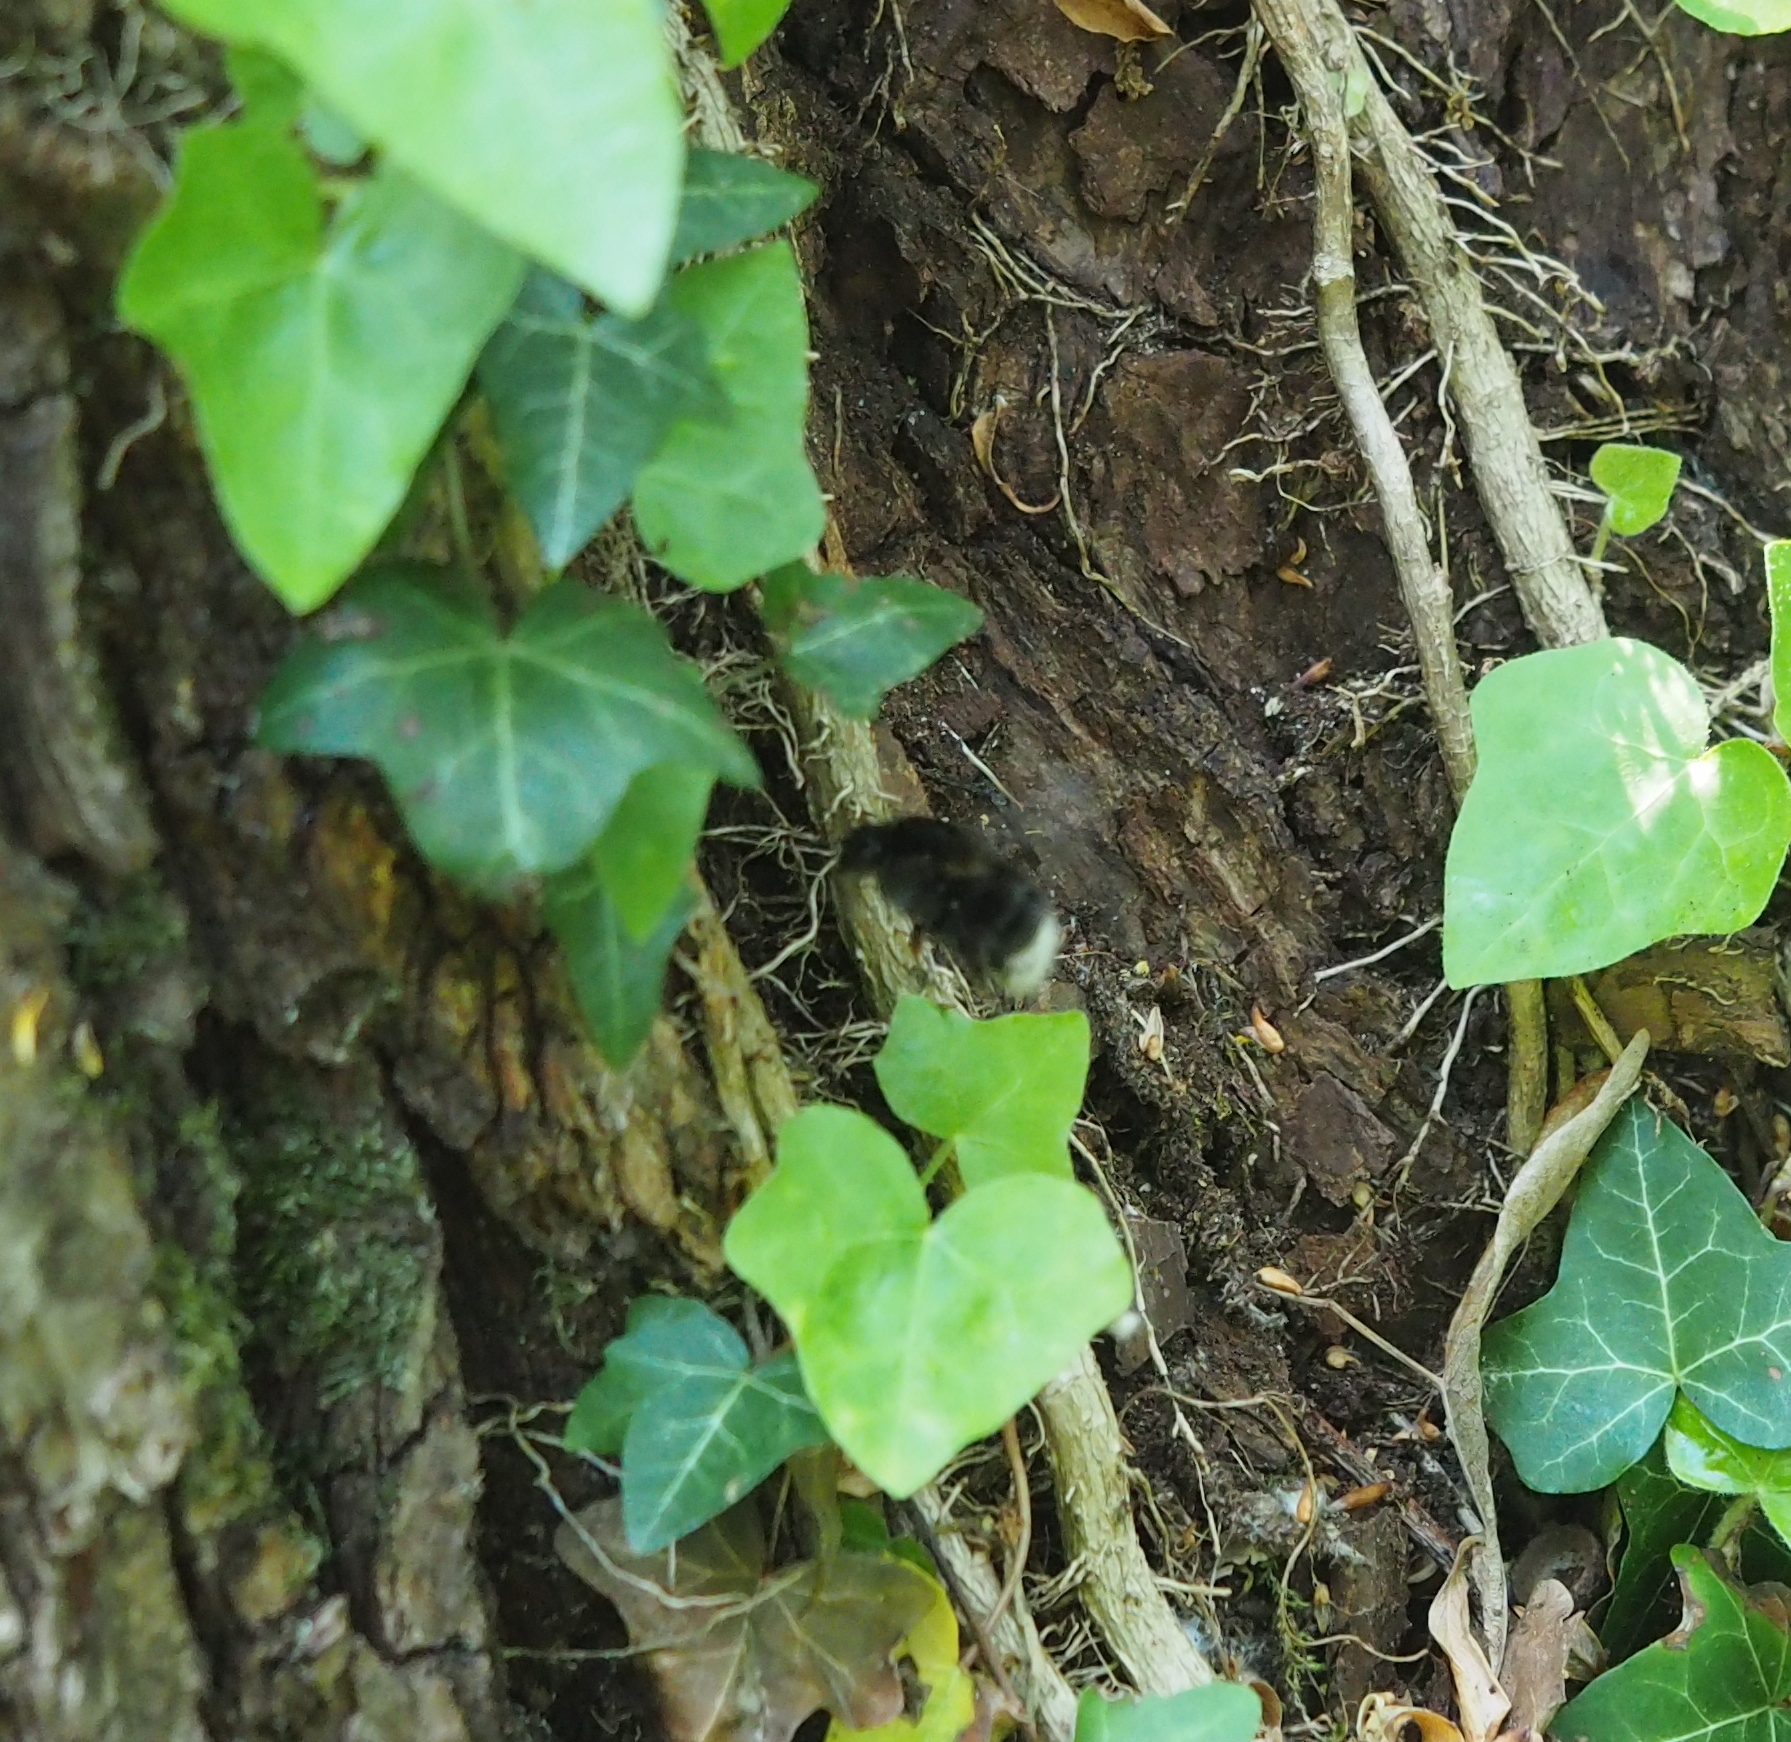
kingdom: Animalia
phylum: Arthropoda
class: Insecta
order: Hymenoptera
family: Apidae
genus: Bombus
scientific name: Bombus hypnorum
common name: New garden bumblebee
